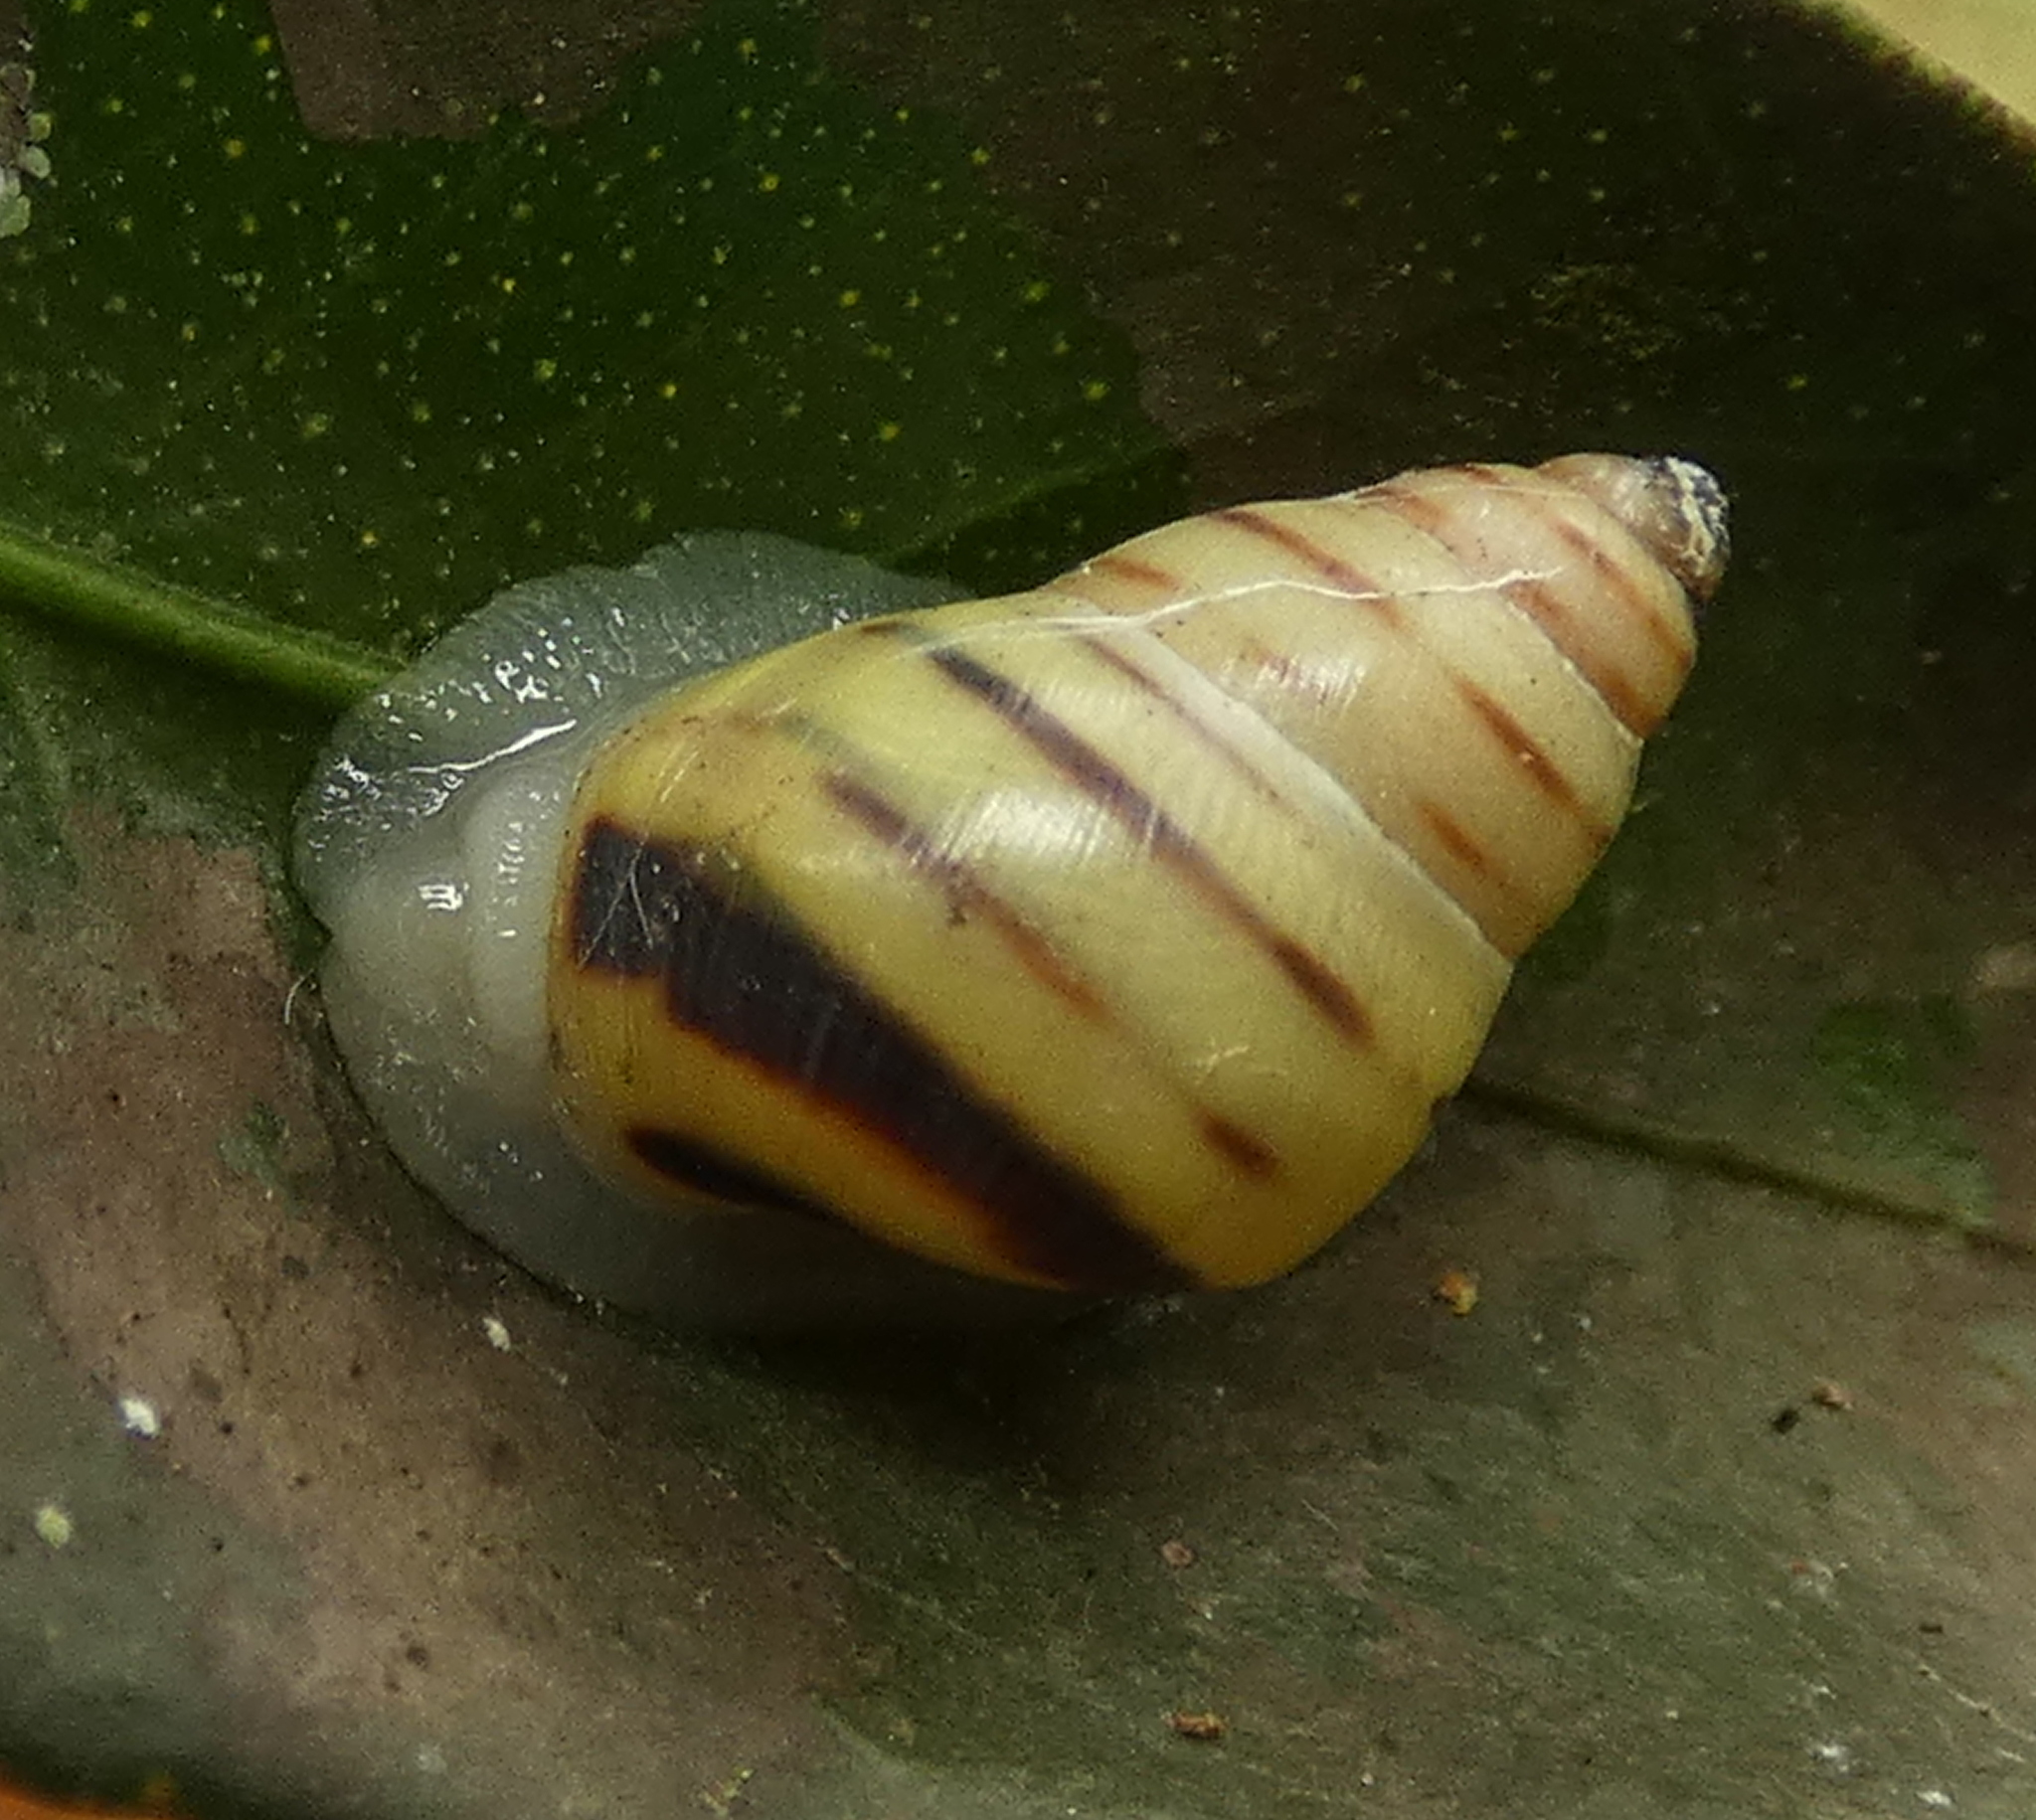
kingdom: Animalia
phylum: Mollusca
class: Gastropoda
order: Stylommatophora
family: Bulimulidae
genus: Drymaeus
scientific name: Drymaeus
